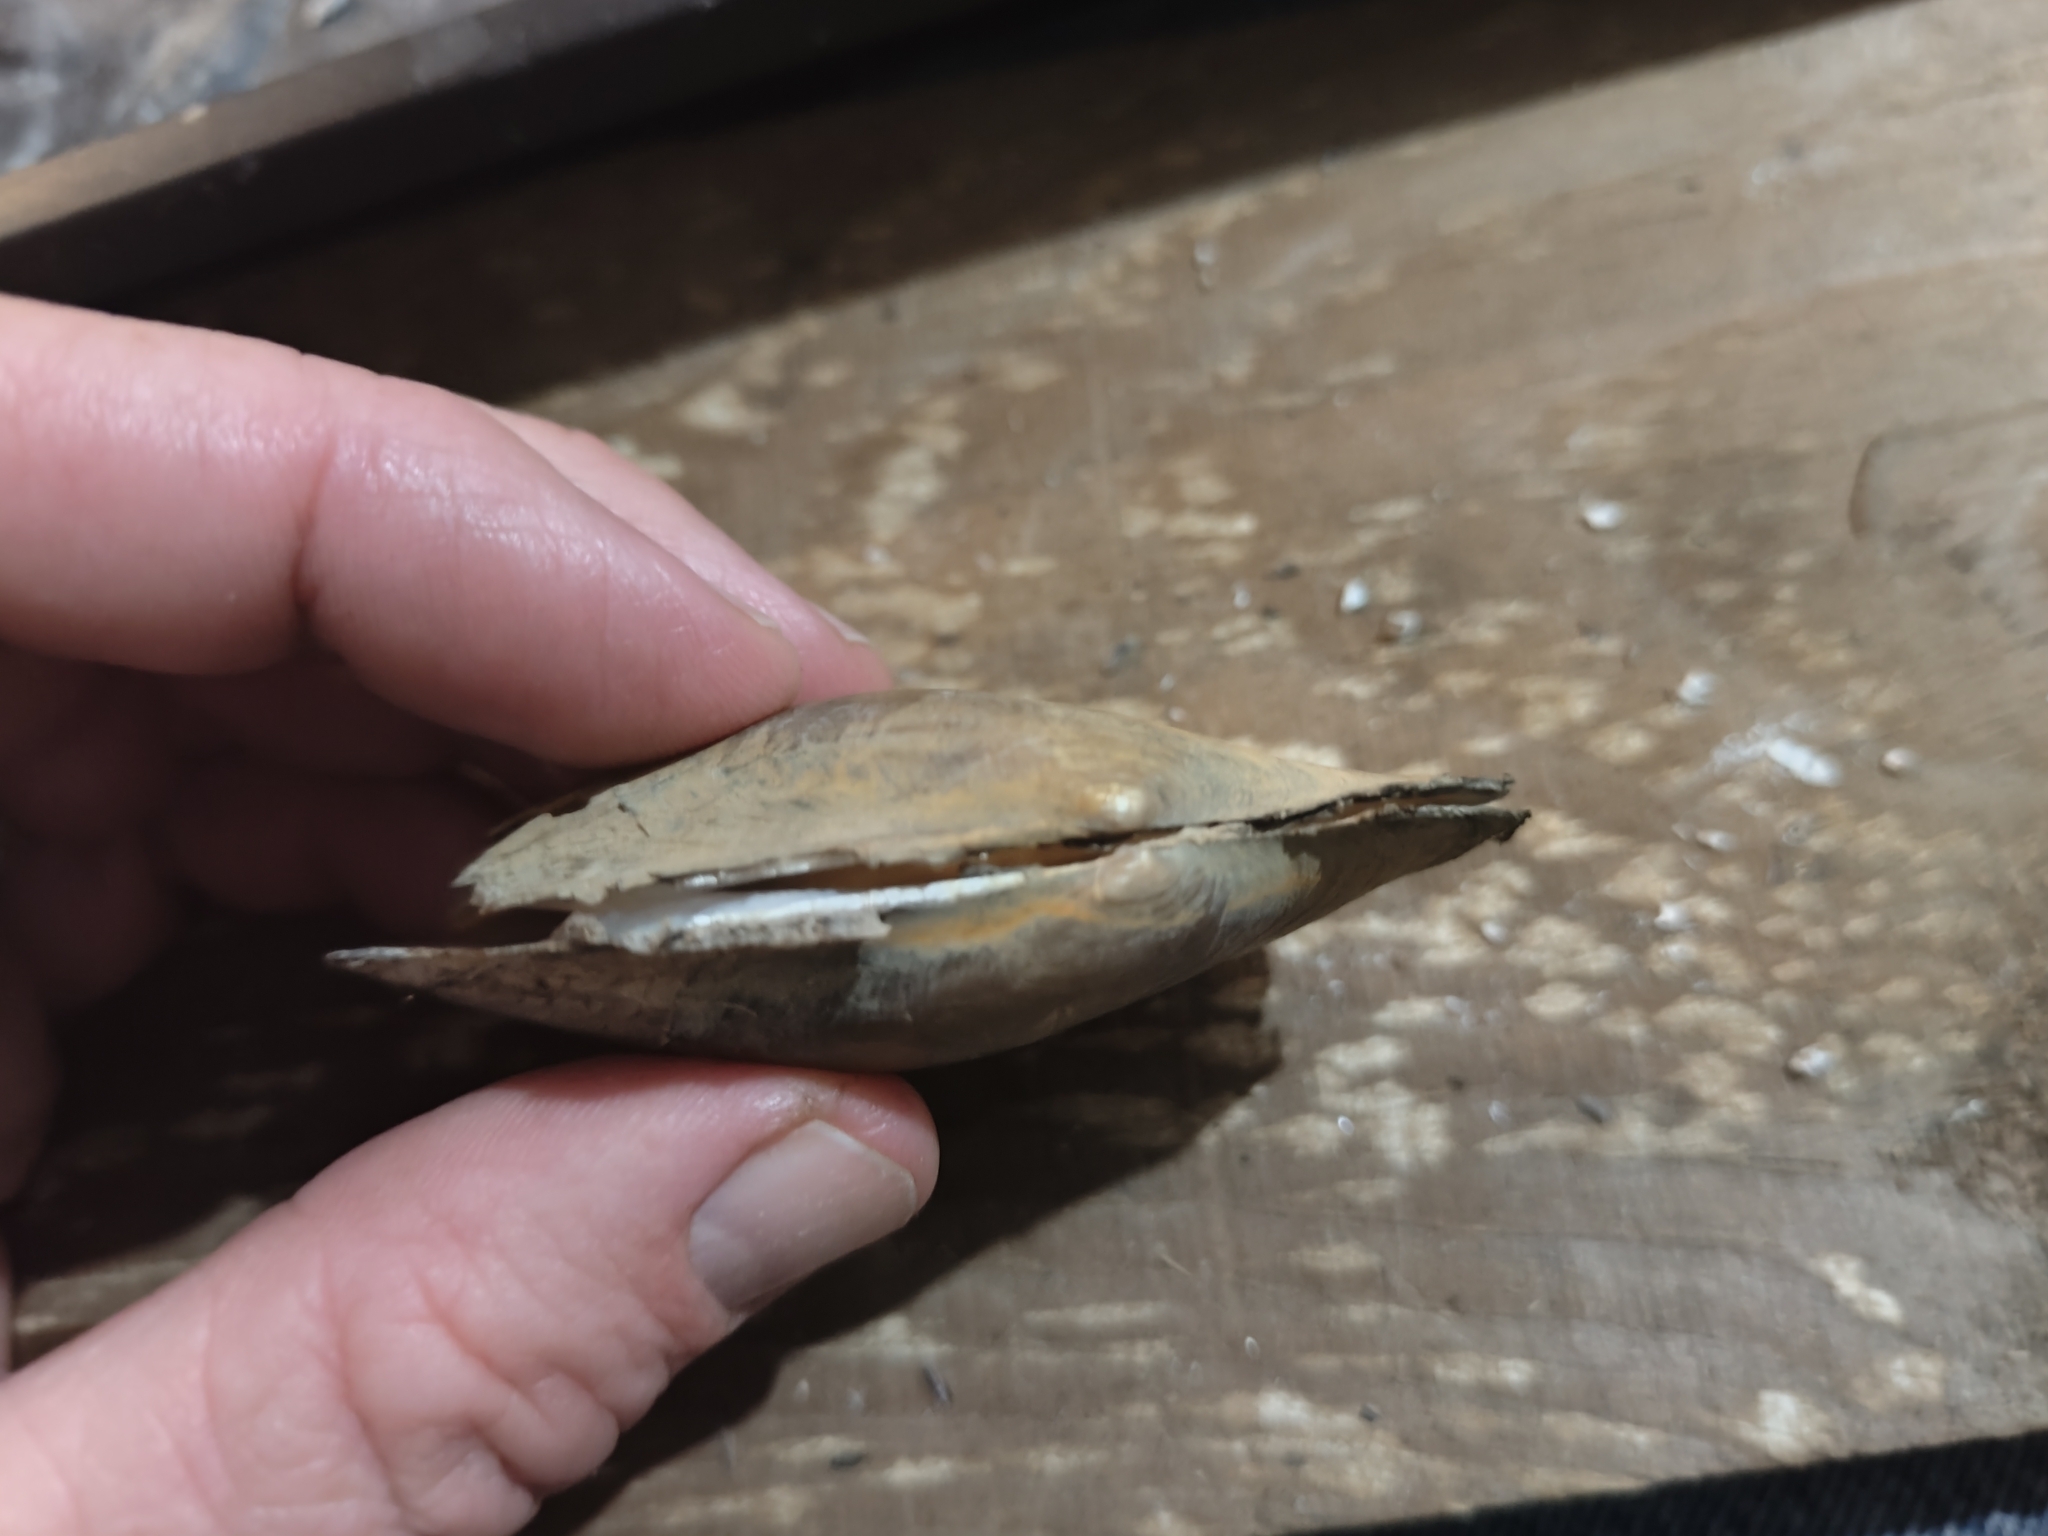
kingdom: Animalia
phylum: Mollusca
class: Bivalvia
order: Unionida
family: Unionidae
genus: Potamilus
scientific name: Potamilus fragilis
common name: Fragile papershell
